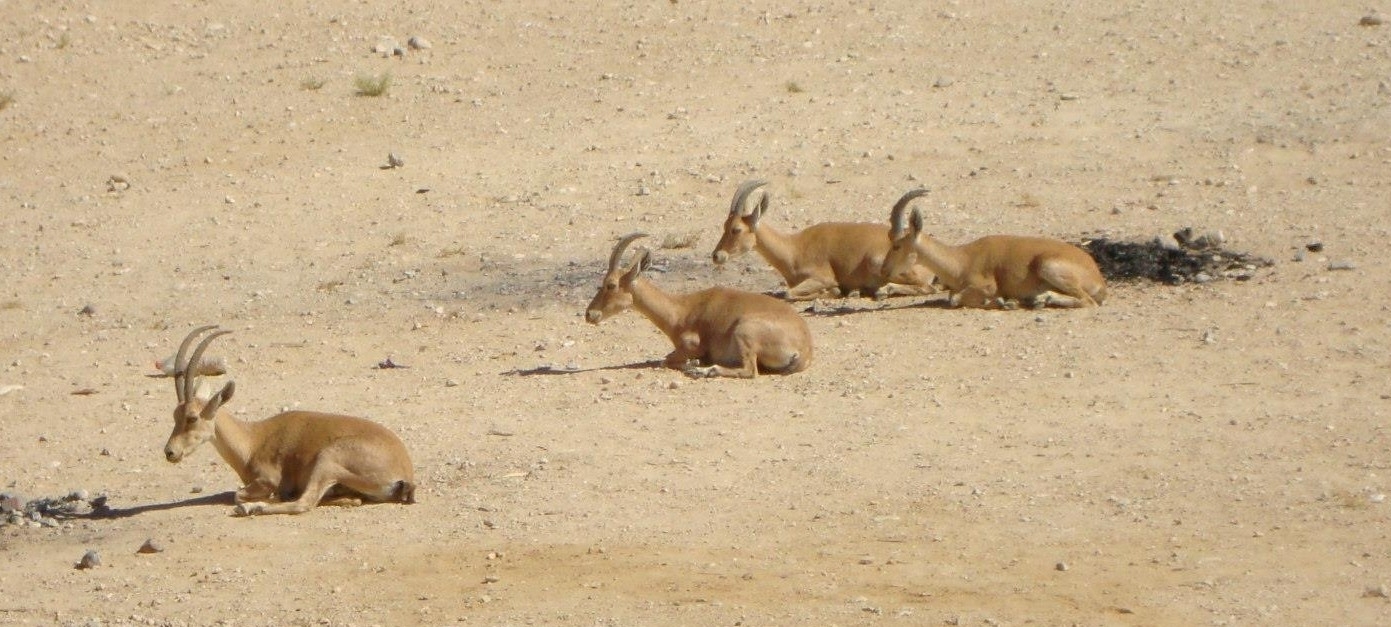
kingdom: Animalia
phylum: Chordata
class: Mammalia
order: Artiodactyla
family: Bovidae
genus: Capra
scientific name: Capra nubiana
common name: Nubian ibex
